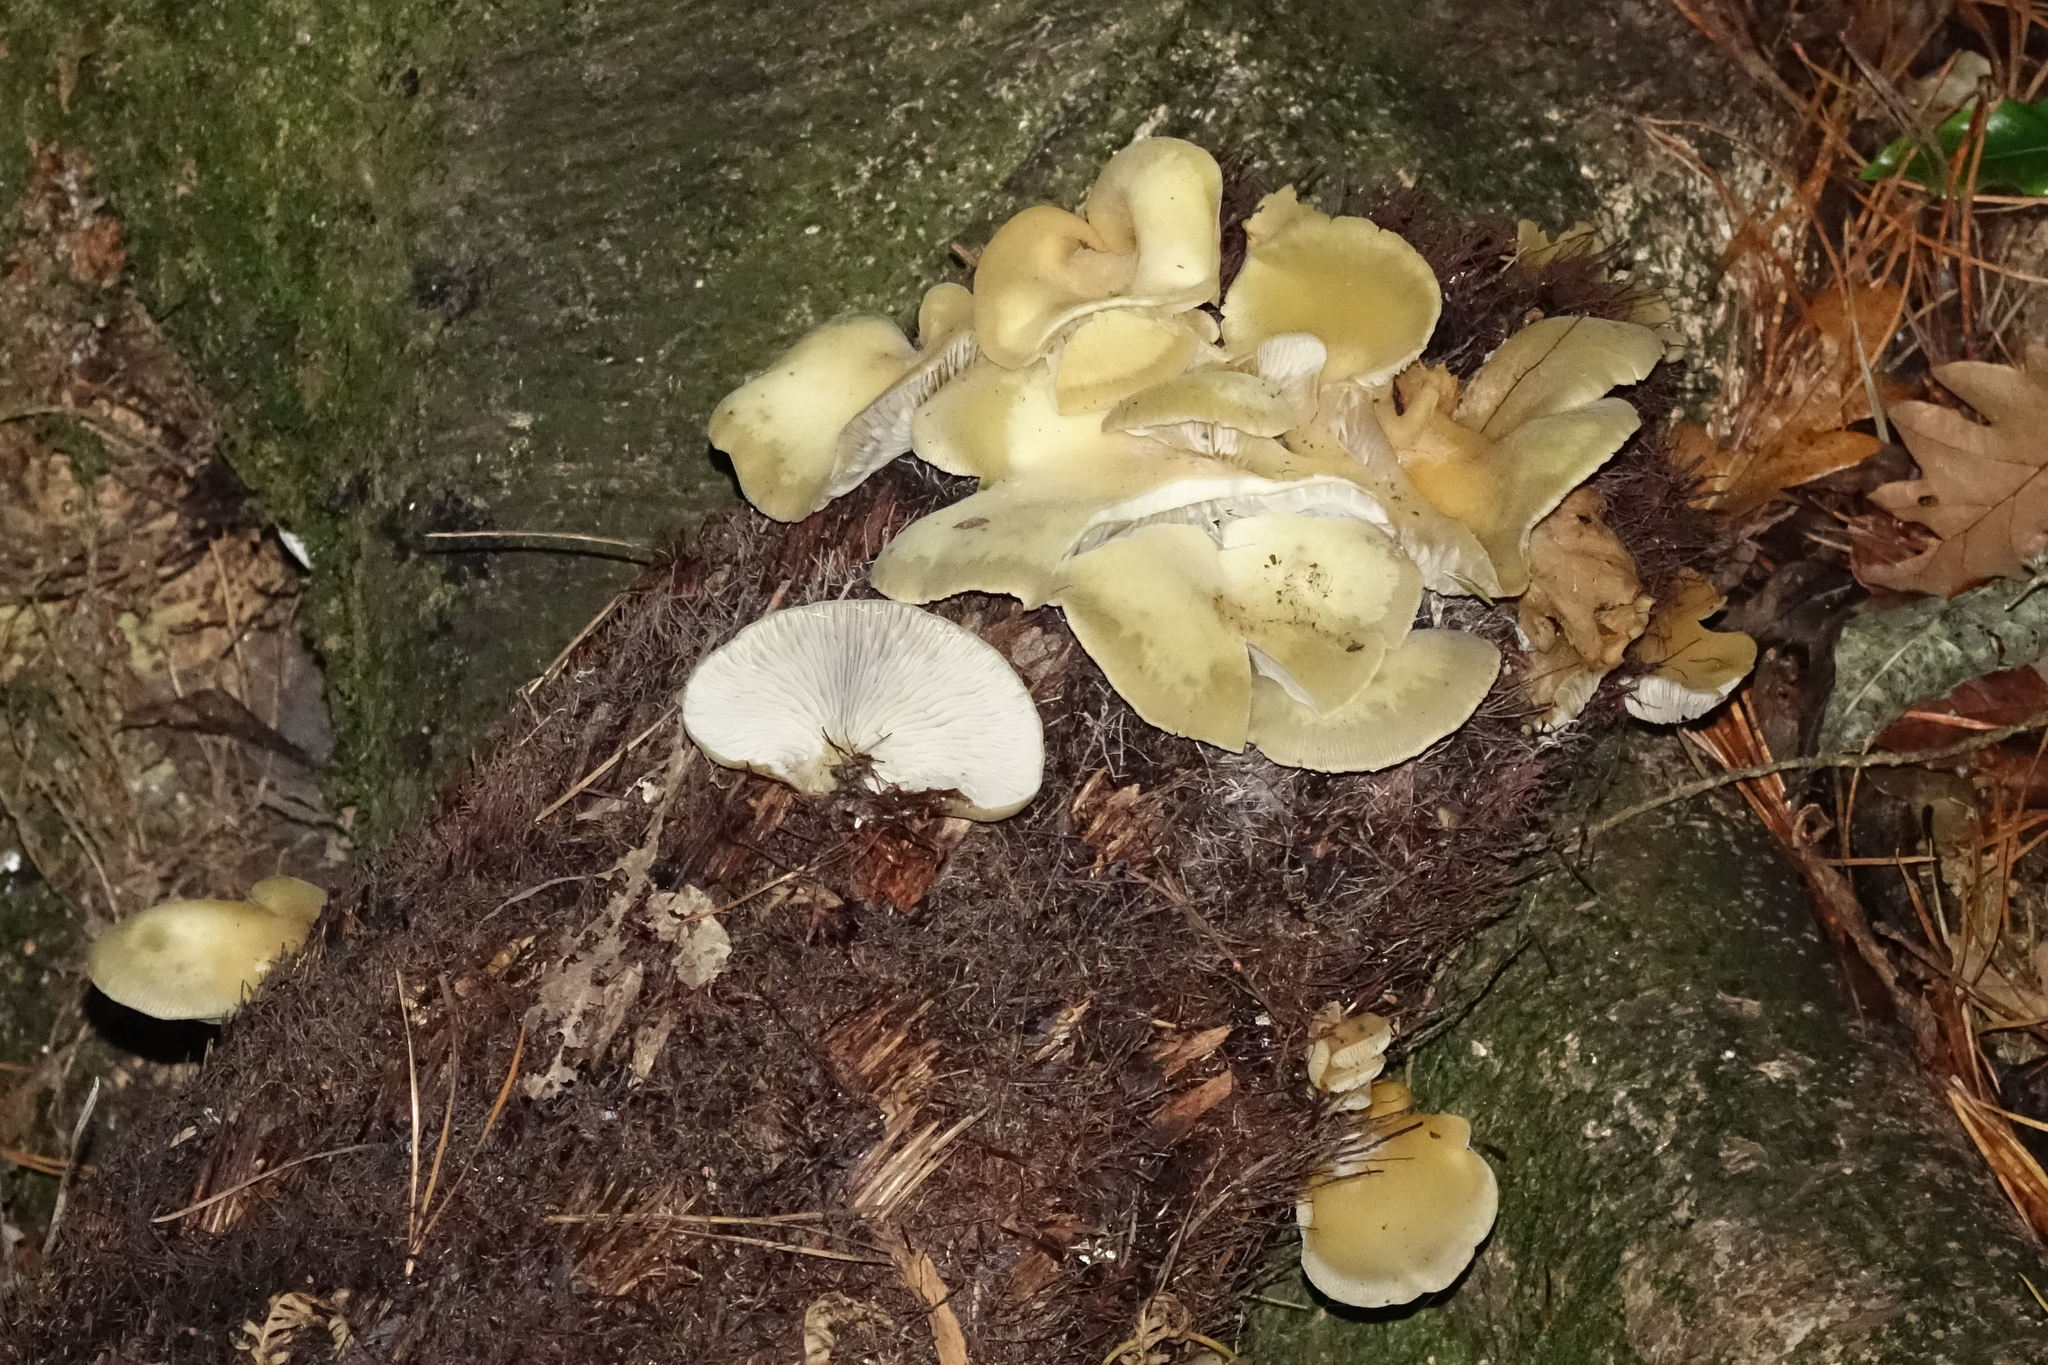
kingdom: Fungi
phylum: Basidiomycota
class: Agaricomycetes
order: Agaricales
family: Tricholomataceae
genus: Conchomyces
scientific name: Conchomyces bursiformis
